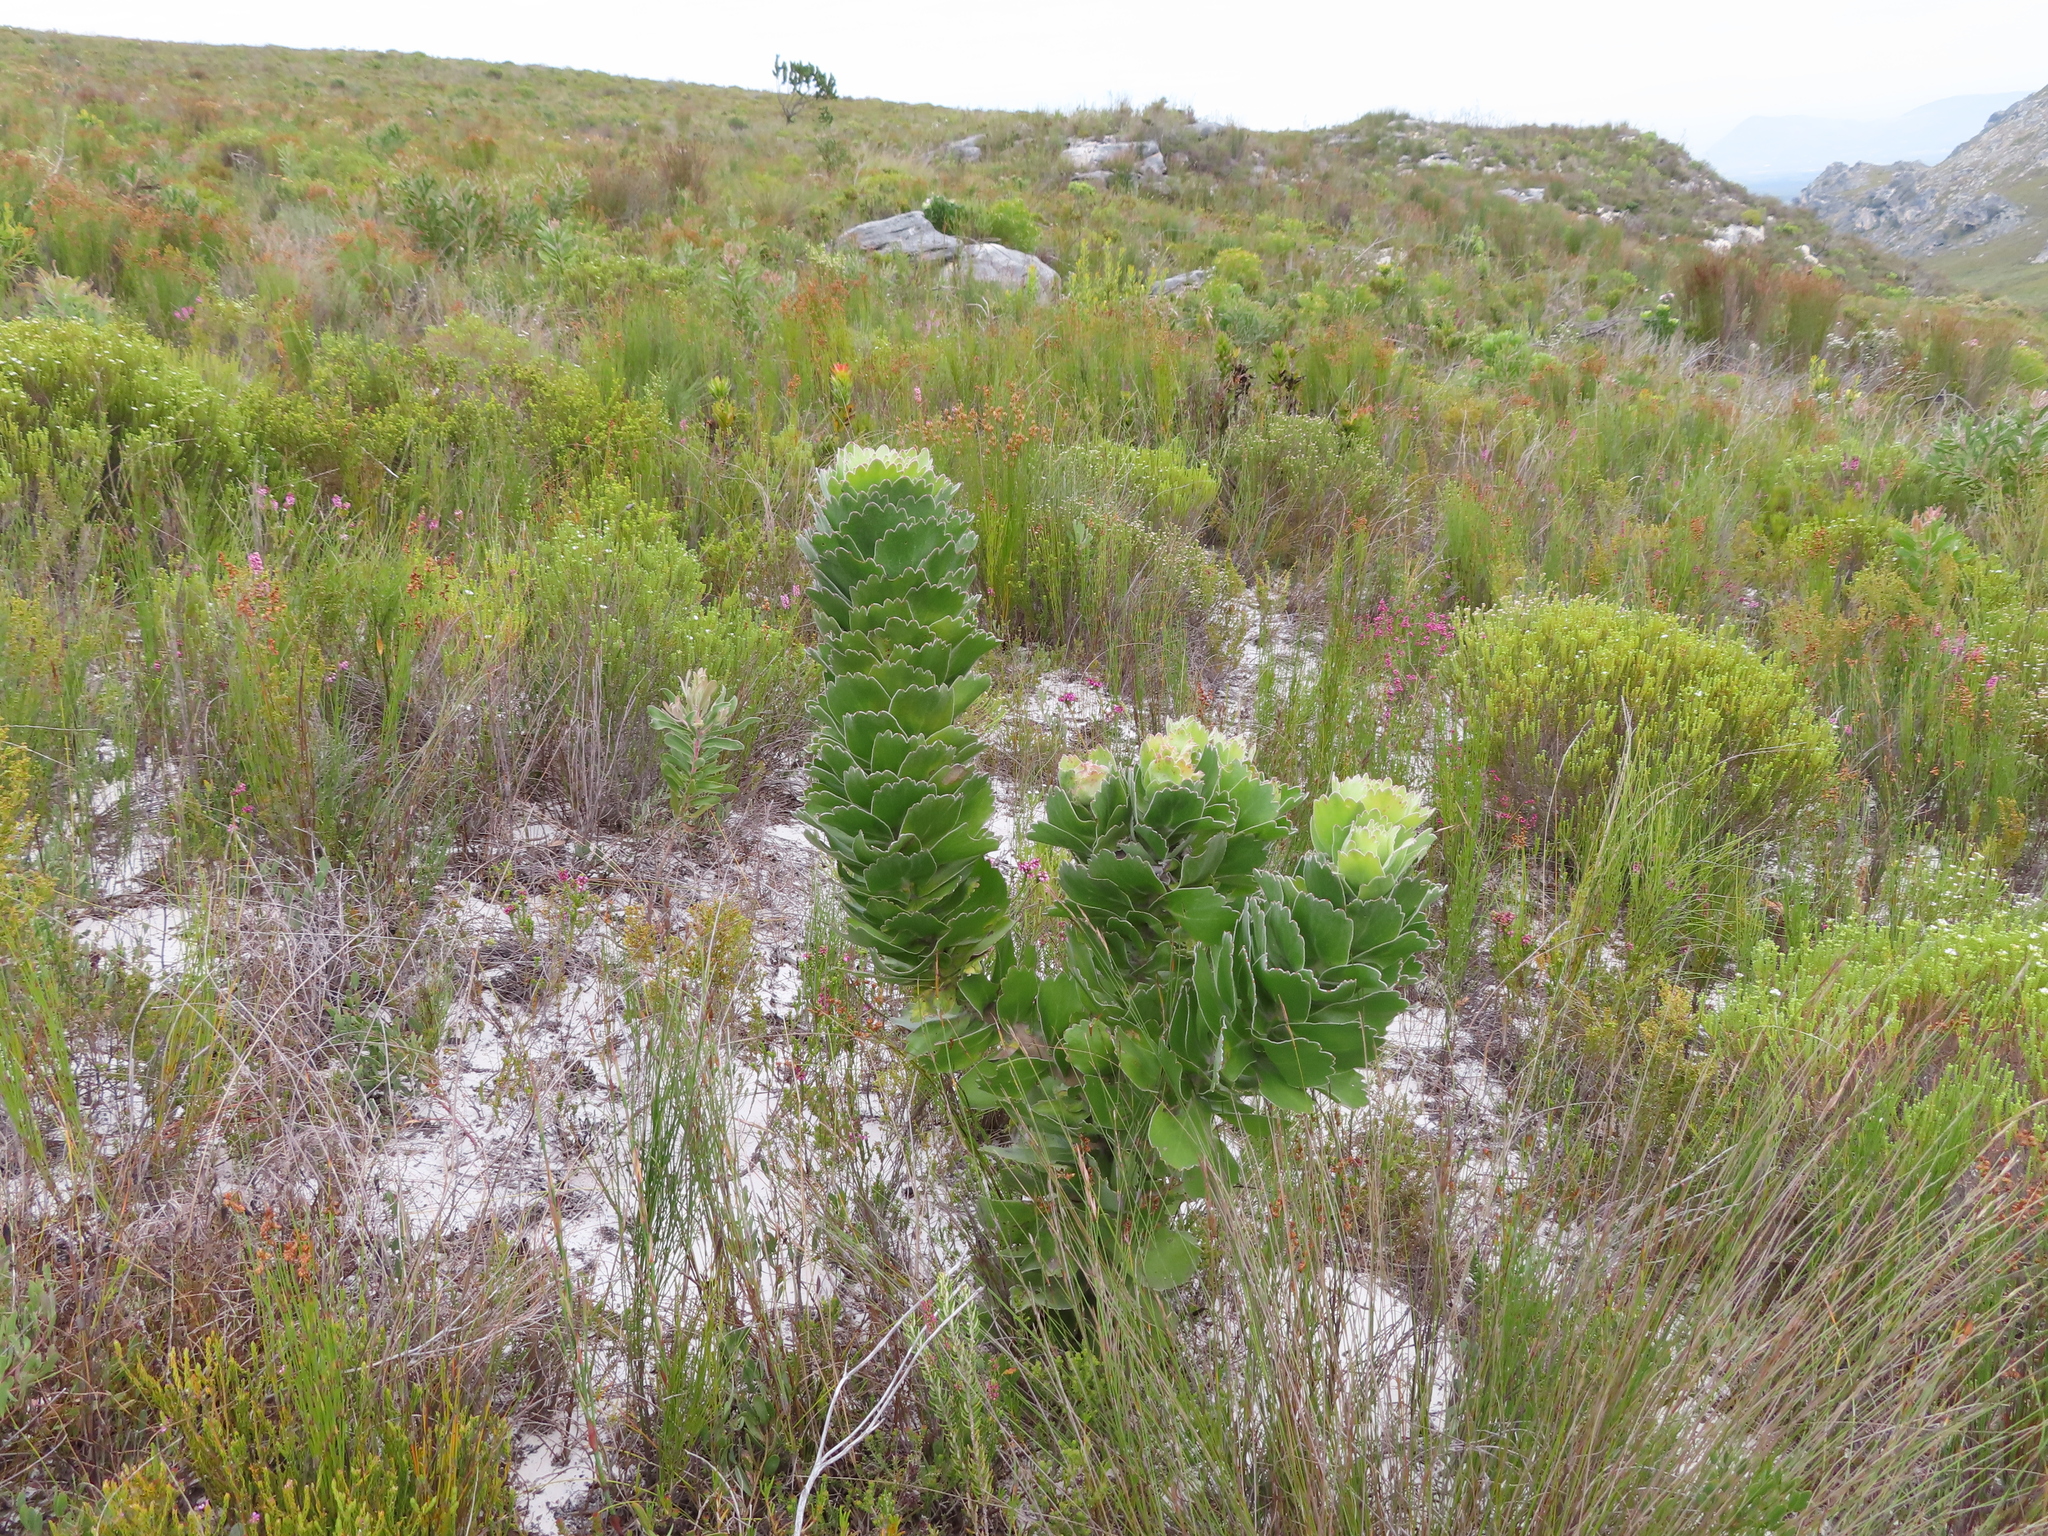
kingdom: Plantae
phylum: Tracheophyta
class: Magnoliopsida
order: Proteales
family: Proteaceae
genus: Leucospermum
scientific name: Leucospermum patersonii
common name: False tree pincushion
